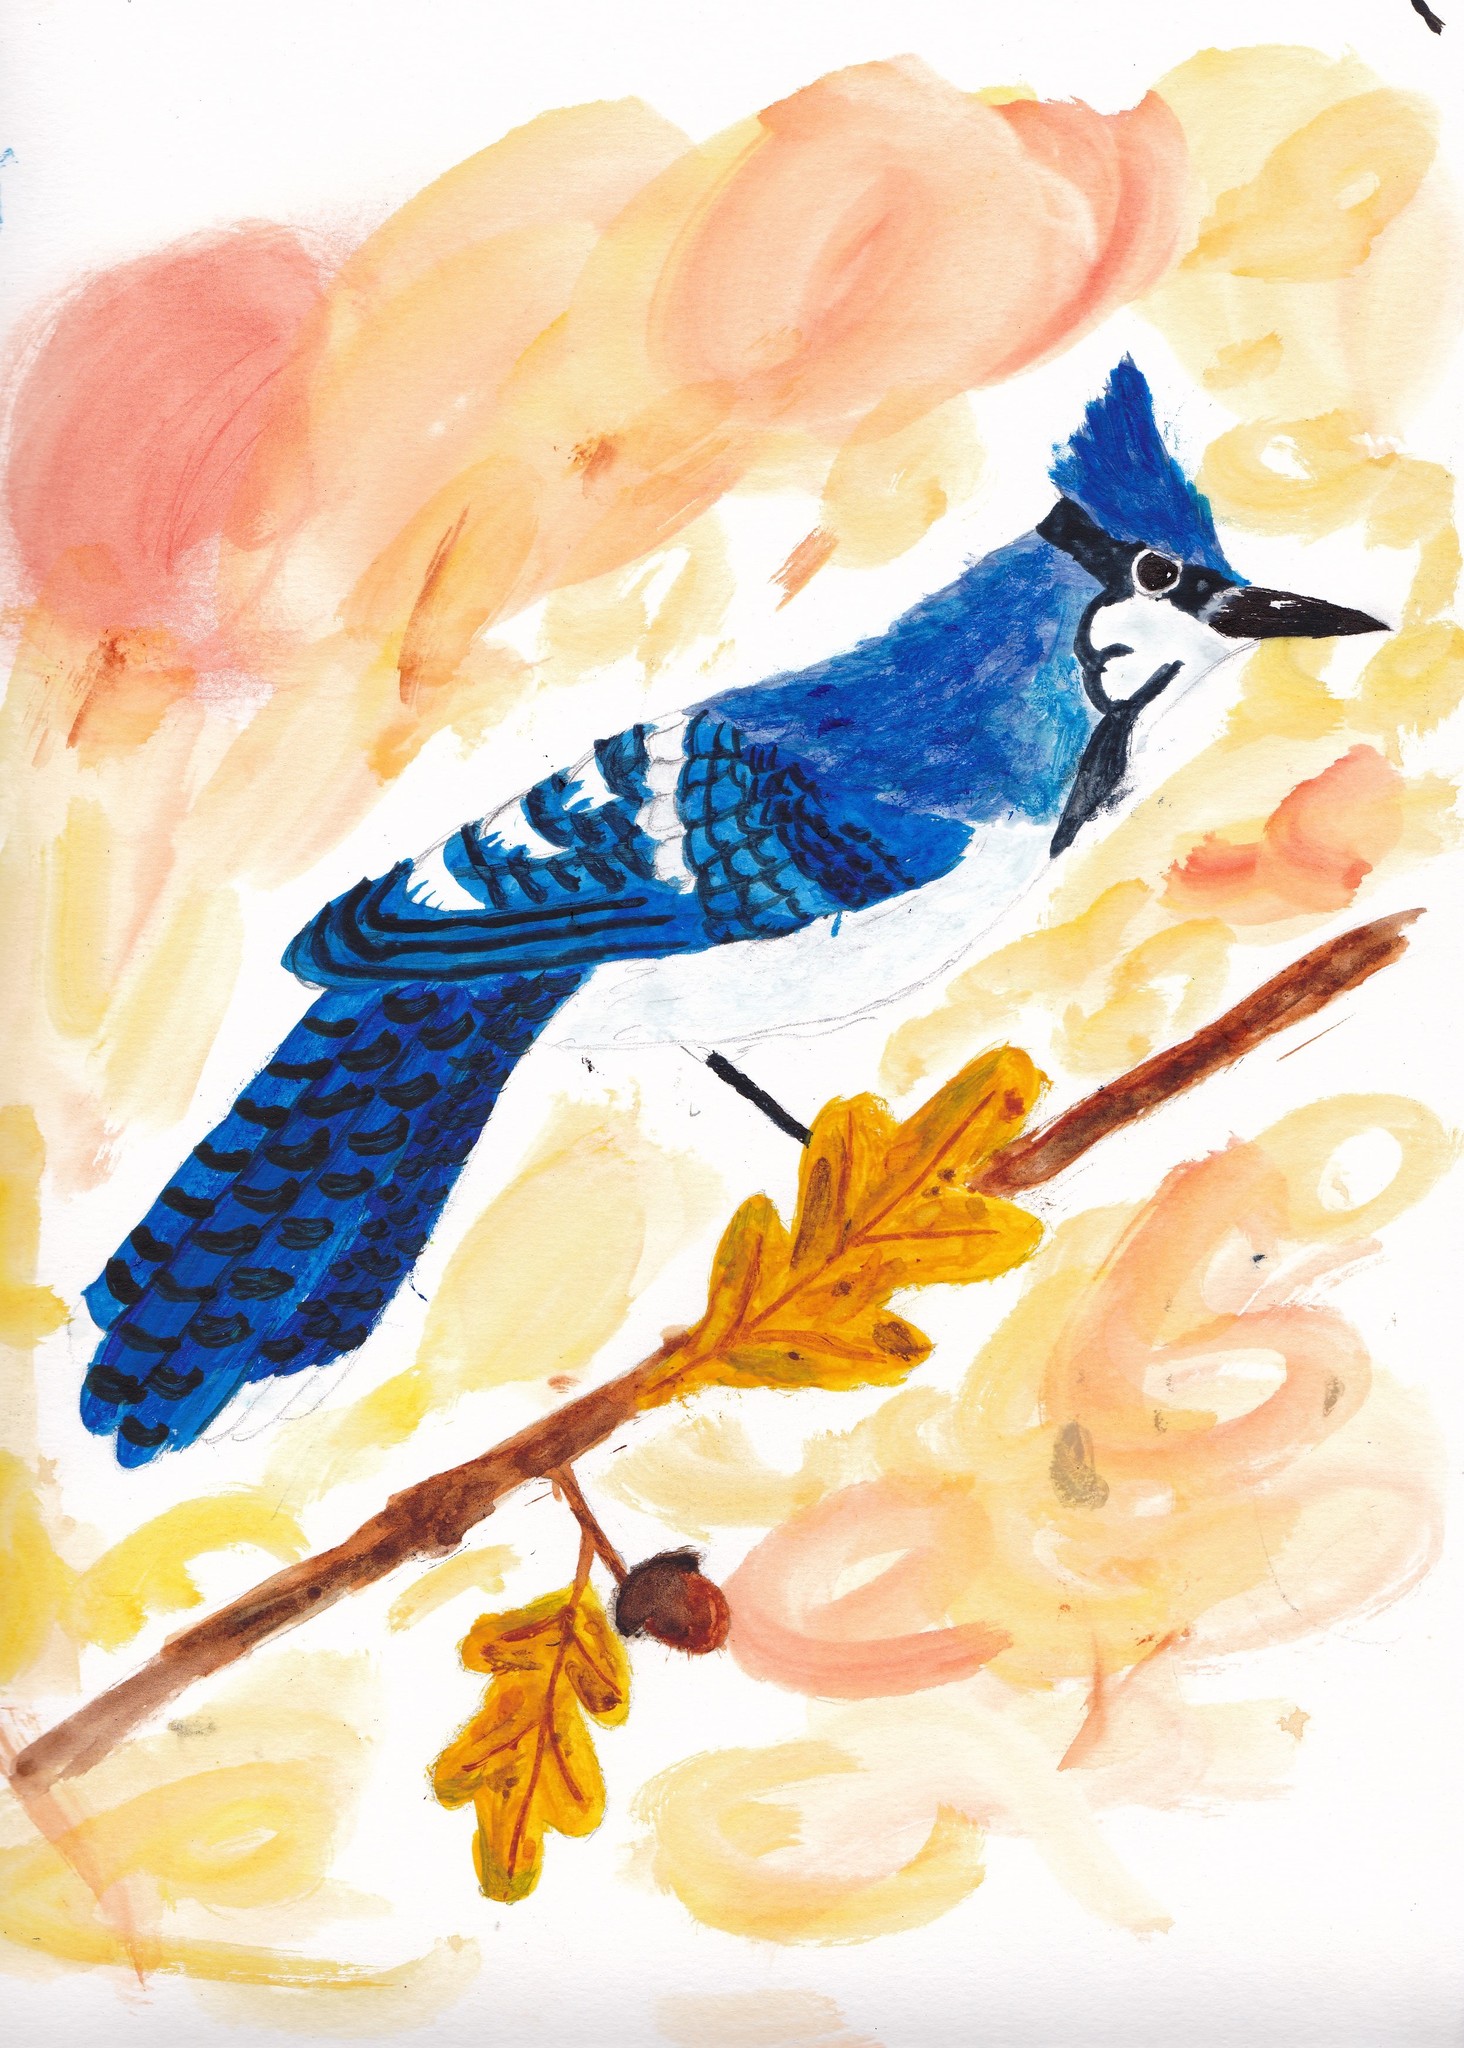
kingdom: Animalia
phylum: Chordata
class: Aves
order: Passeriformes
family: Corvidae
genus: Cyanocitta
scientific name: Cyanocitta cristata
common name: Blue jay
